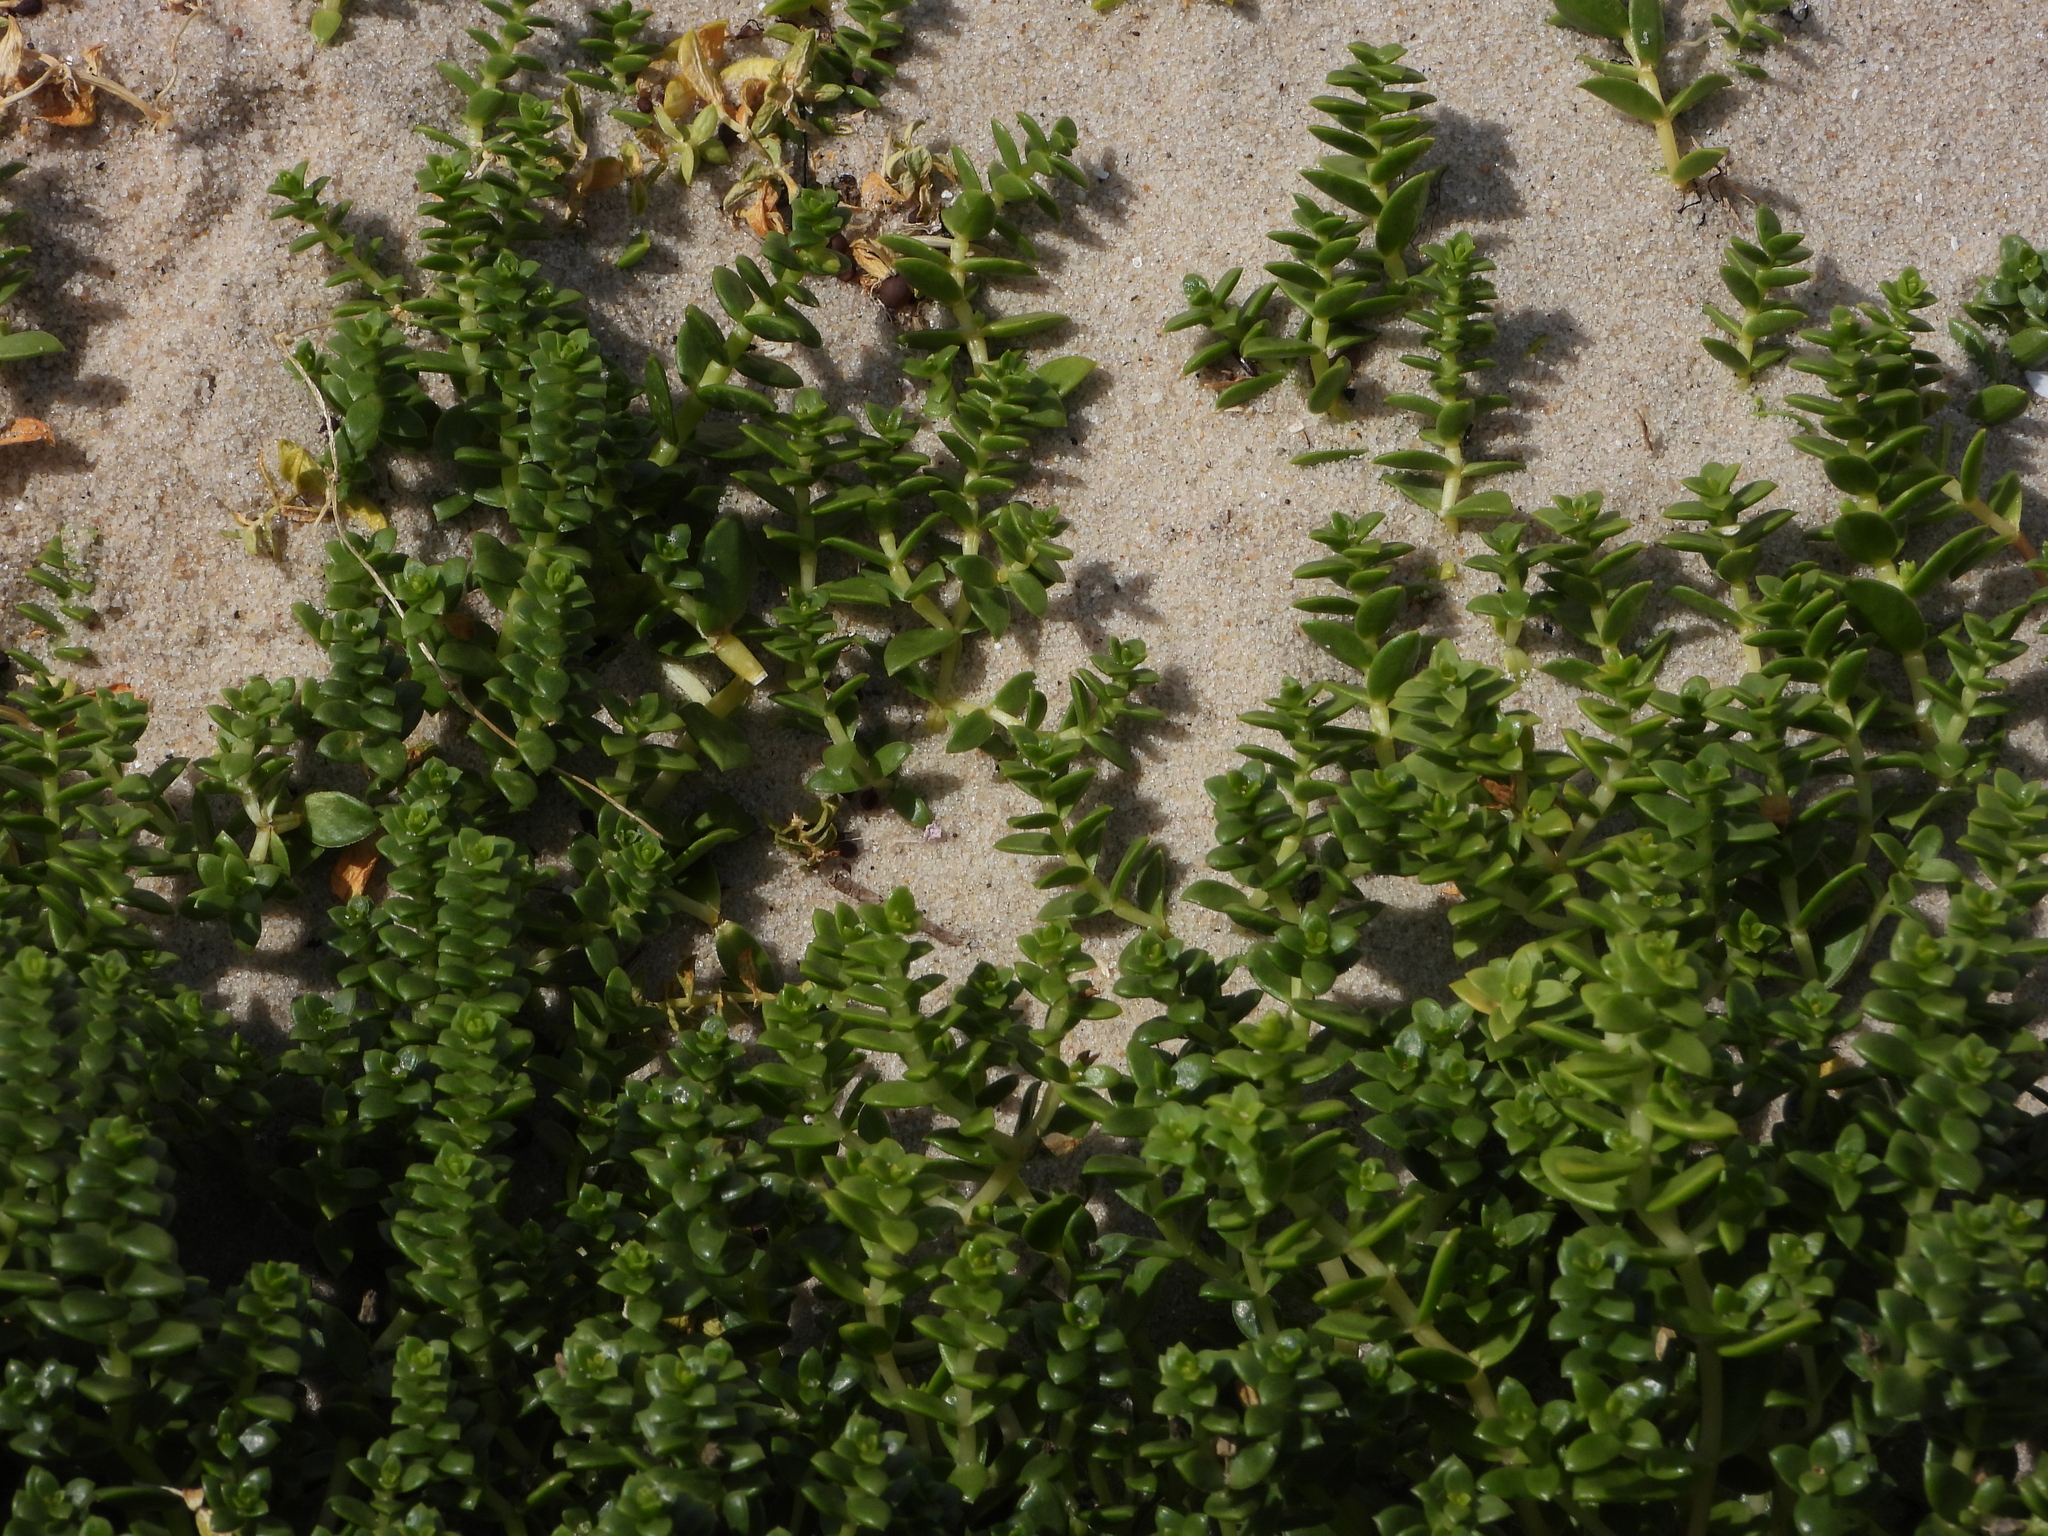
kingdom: Plantae
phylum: Tracheophyta
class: Magnoliopsida
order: Caryophyllales
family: Caryophyllaceae
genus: Honckenya
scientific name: Honckenya peploides
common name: Sea sandwort
